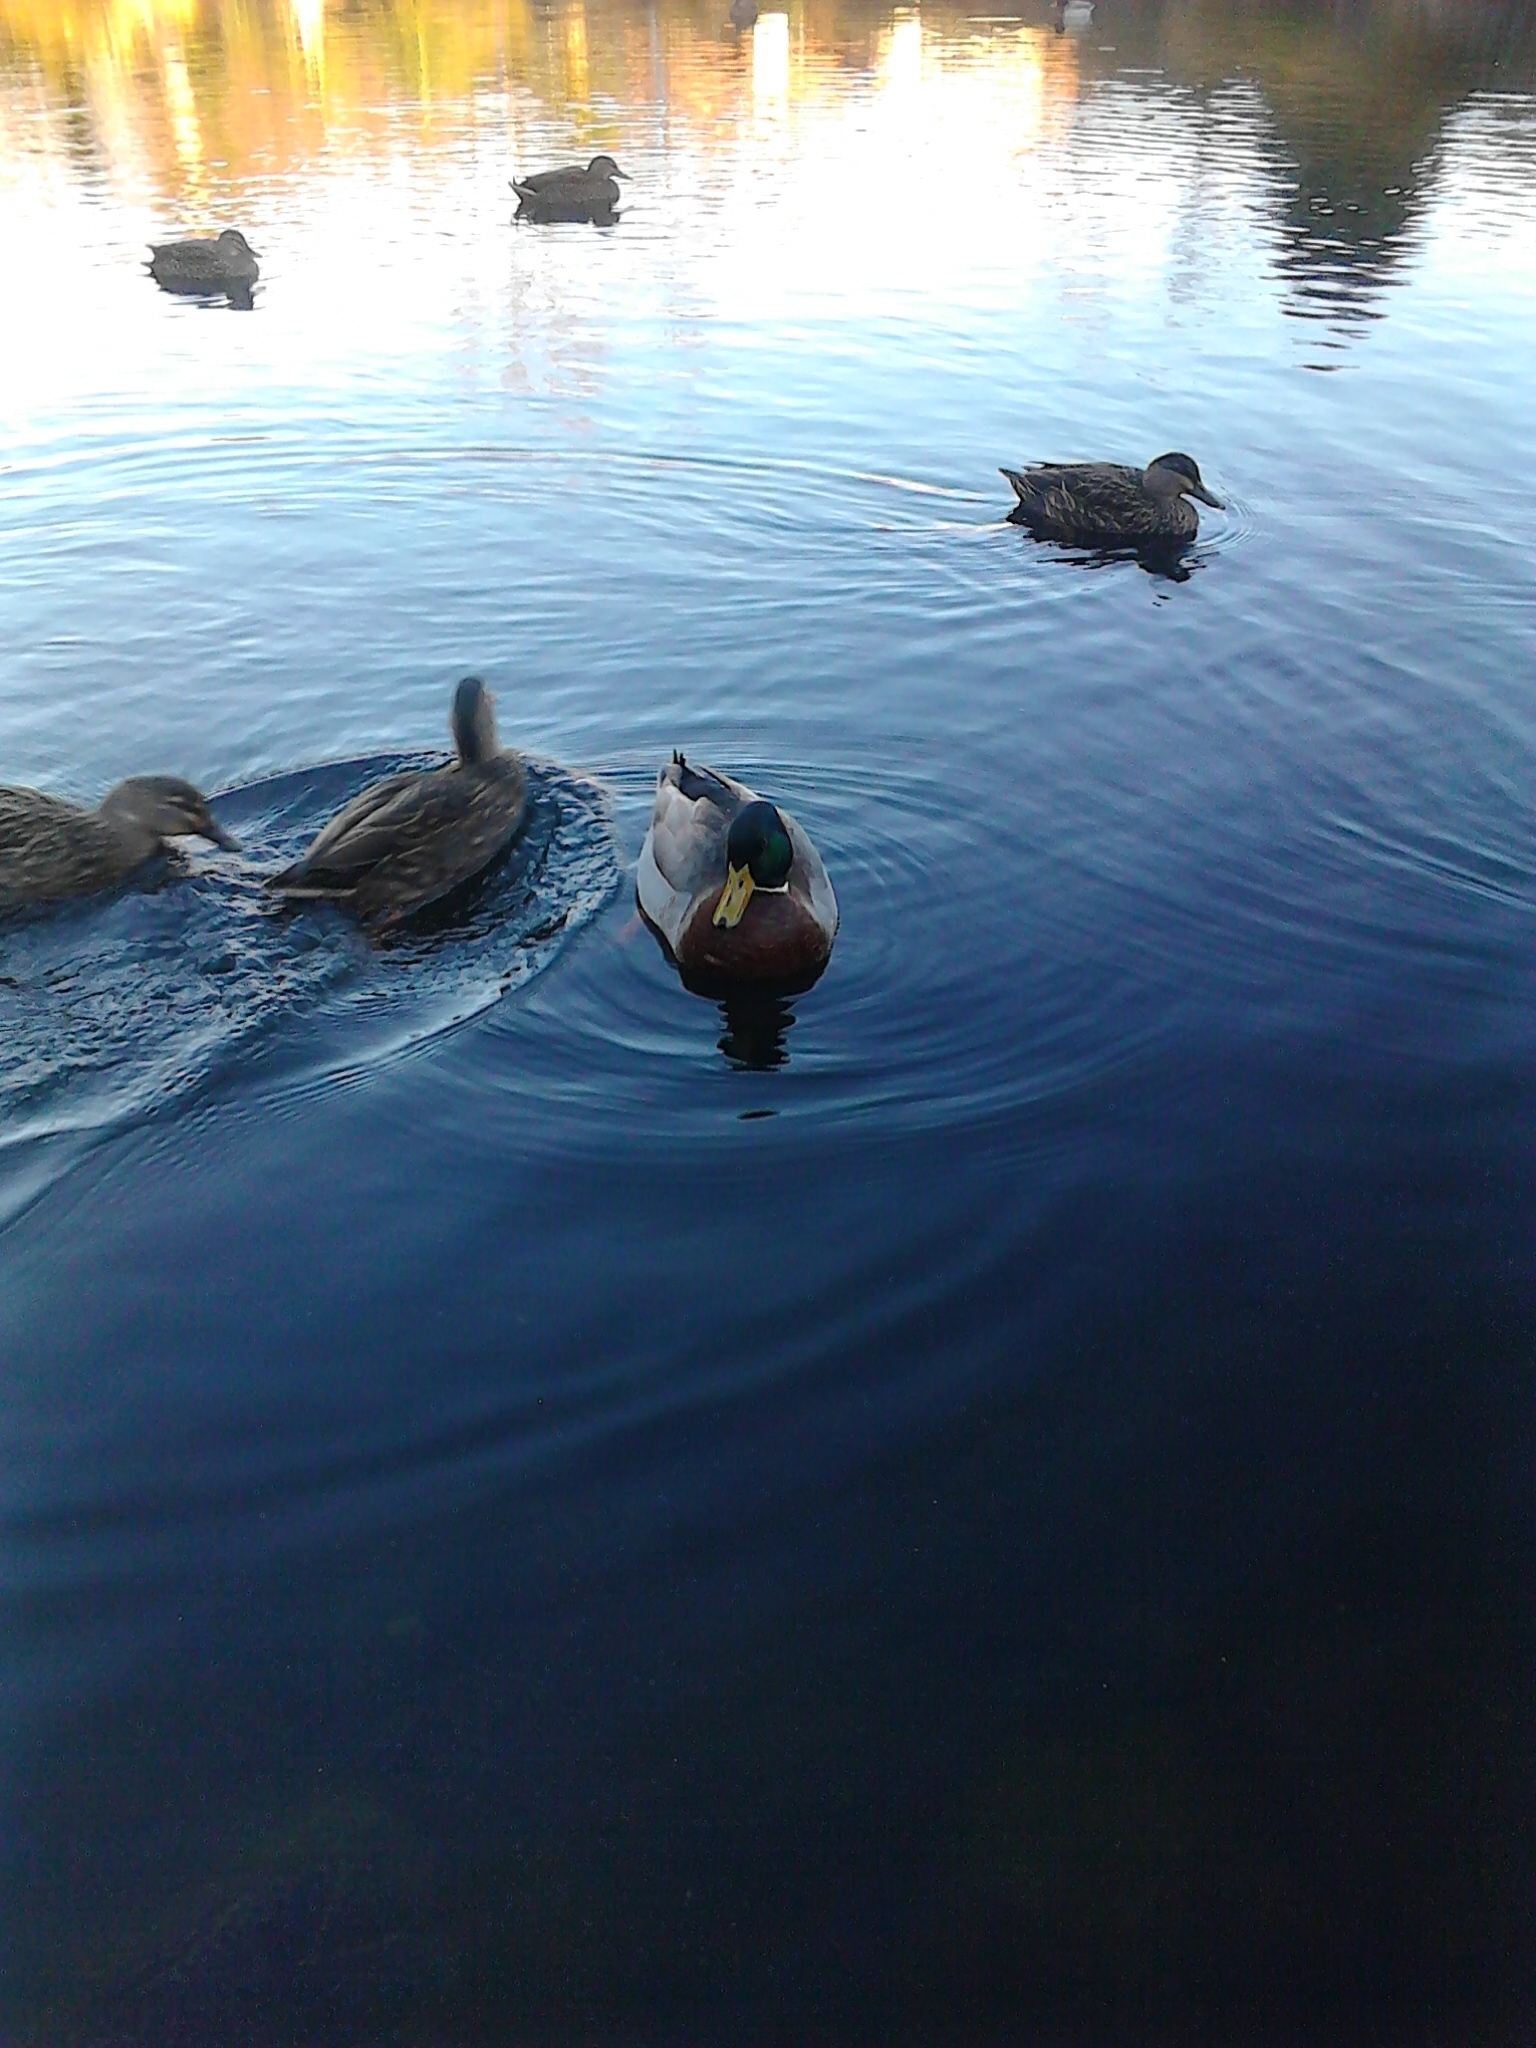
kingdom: Animalia
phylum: Chordata
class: Aves
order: Anseriformes
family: Anatidae
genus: Anas
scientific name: Anas platyrhynchos
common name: Mallard
